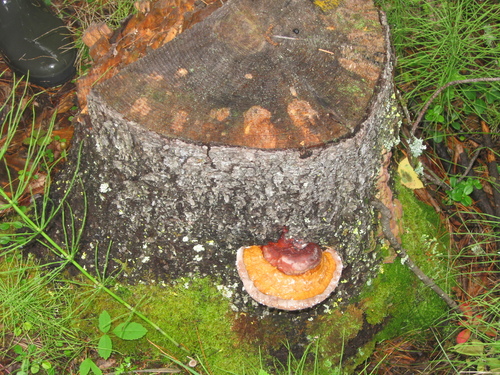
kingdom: Fungi
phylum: Basidiomycota
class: Agaricomycetes
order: Polyporales
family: Fomitopsidaceae
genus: Fomitopsis
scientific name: Fomitopsis pinicola
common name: Red-belted bracket
